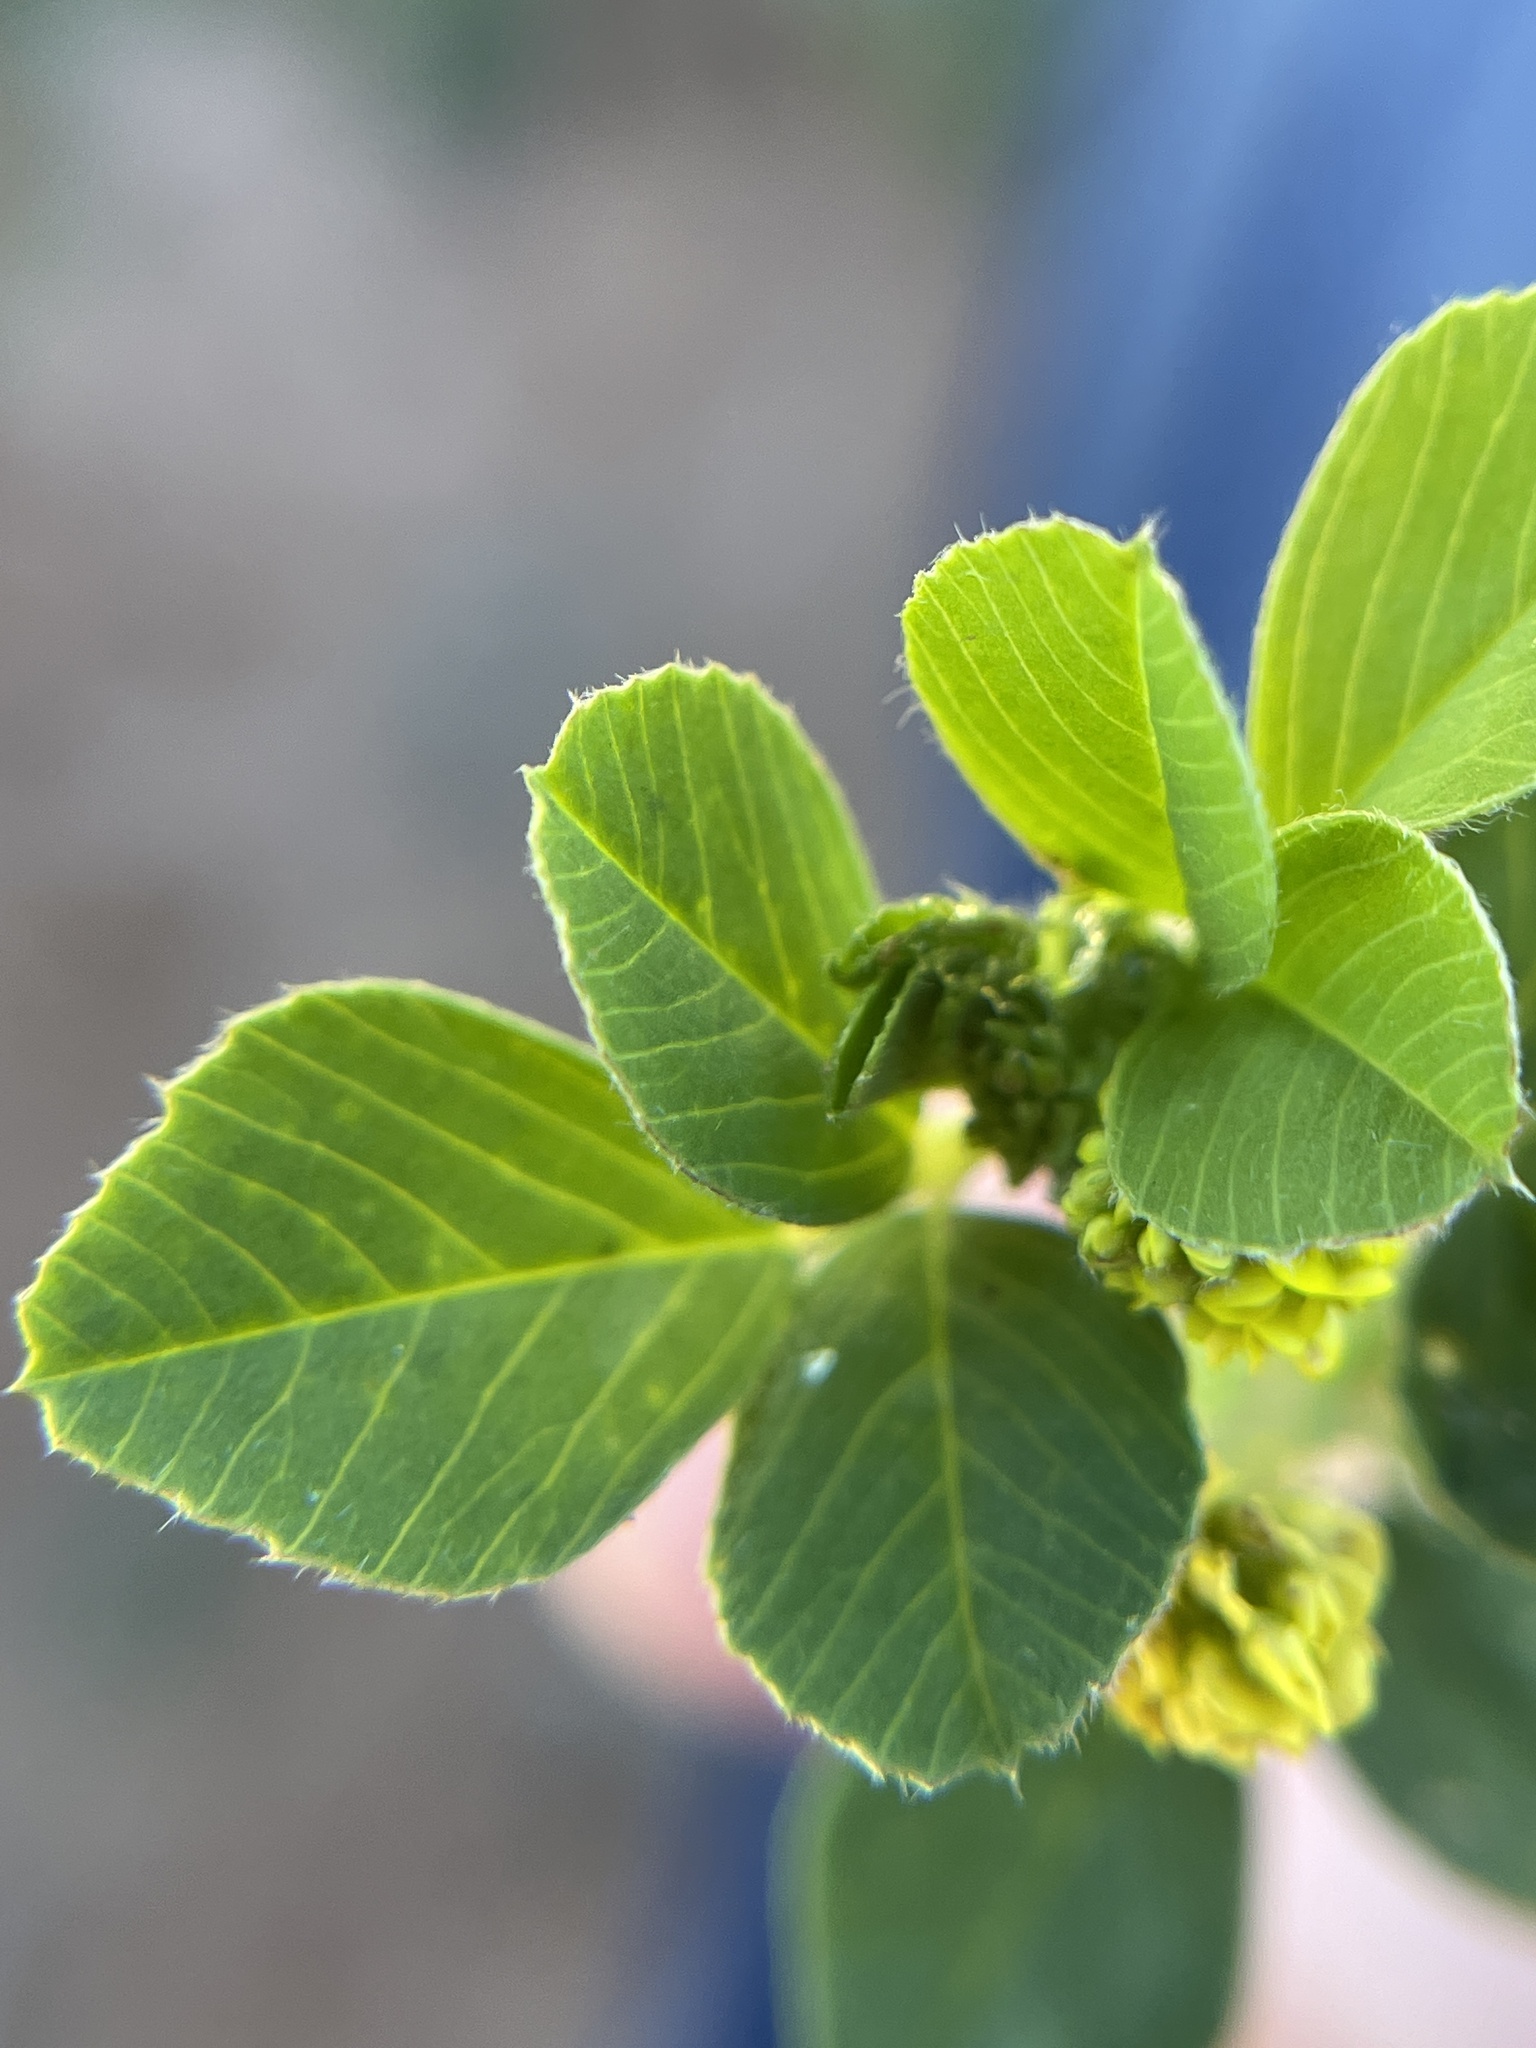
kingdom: Plantae
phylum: Tracheophyta
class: Magnoliopsida
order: Fabales
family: Fabaceae
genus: Medicago
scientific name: Medicago lupulina
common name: Black medick
